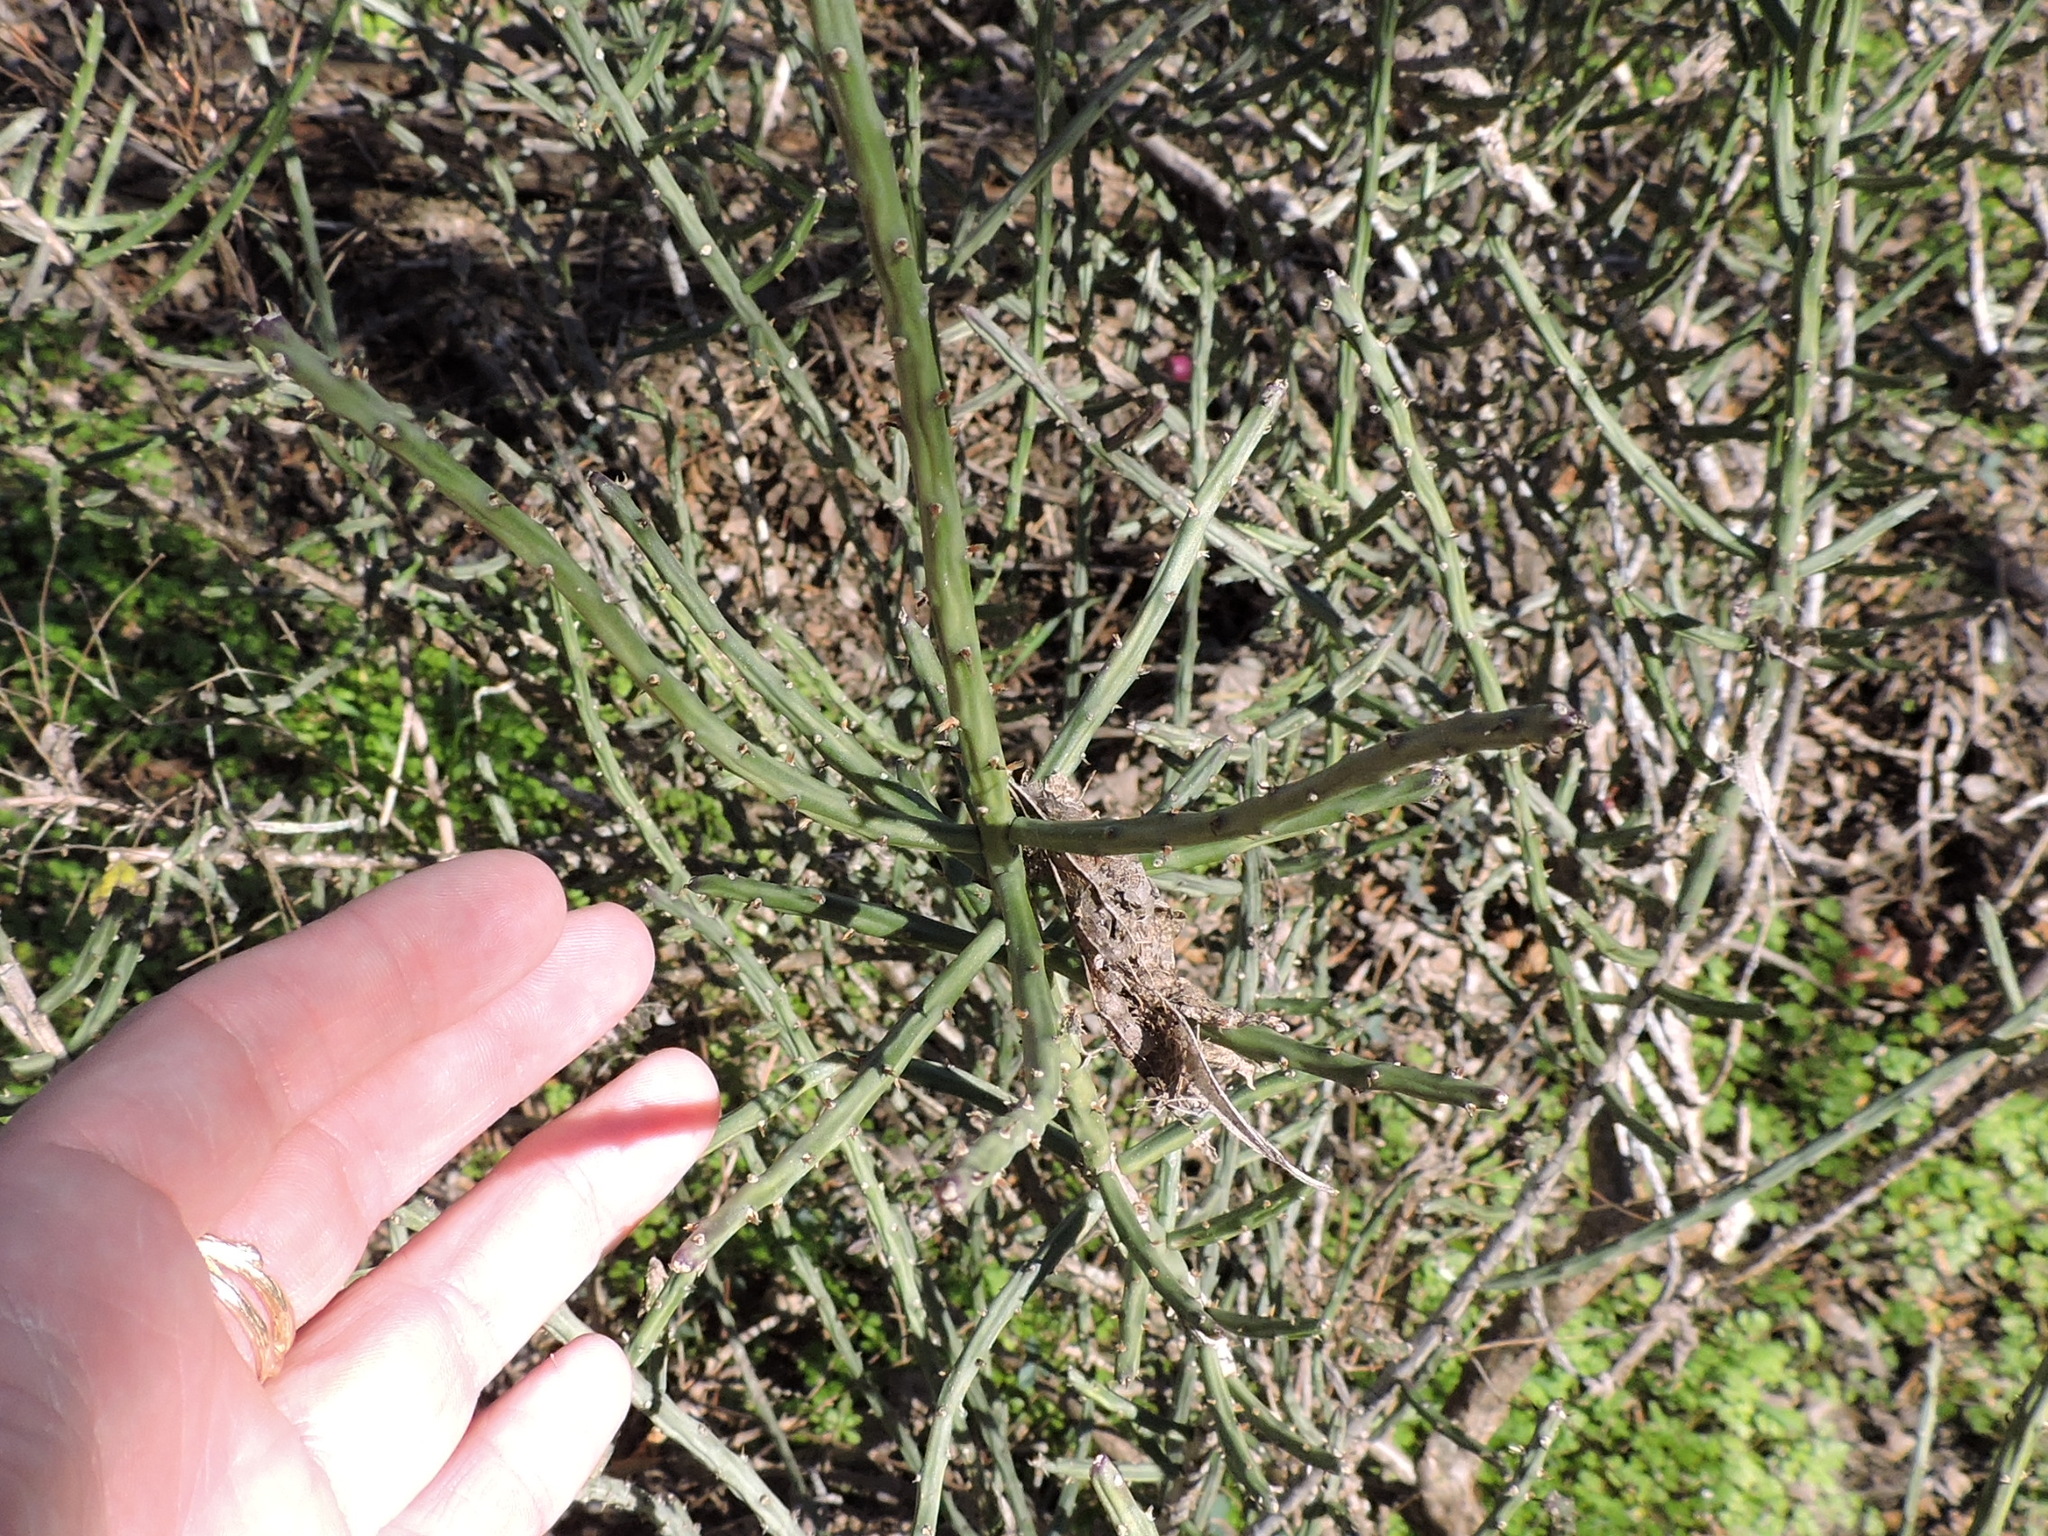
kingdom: Plantae
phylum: Tracheophyta
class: Magnoliopsida
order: Caryophyllales
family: Cactaceae
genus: Cylindropuntia
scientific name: Cylindropuntia leptocaulis
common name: Christmas cactus
